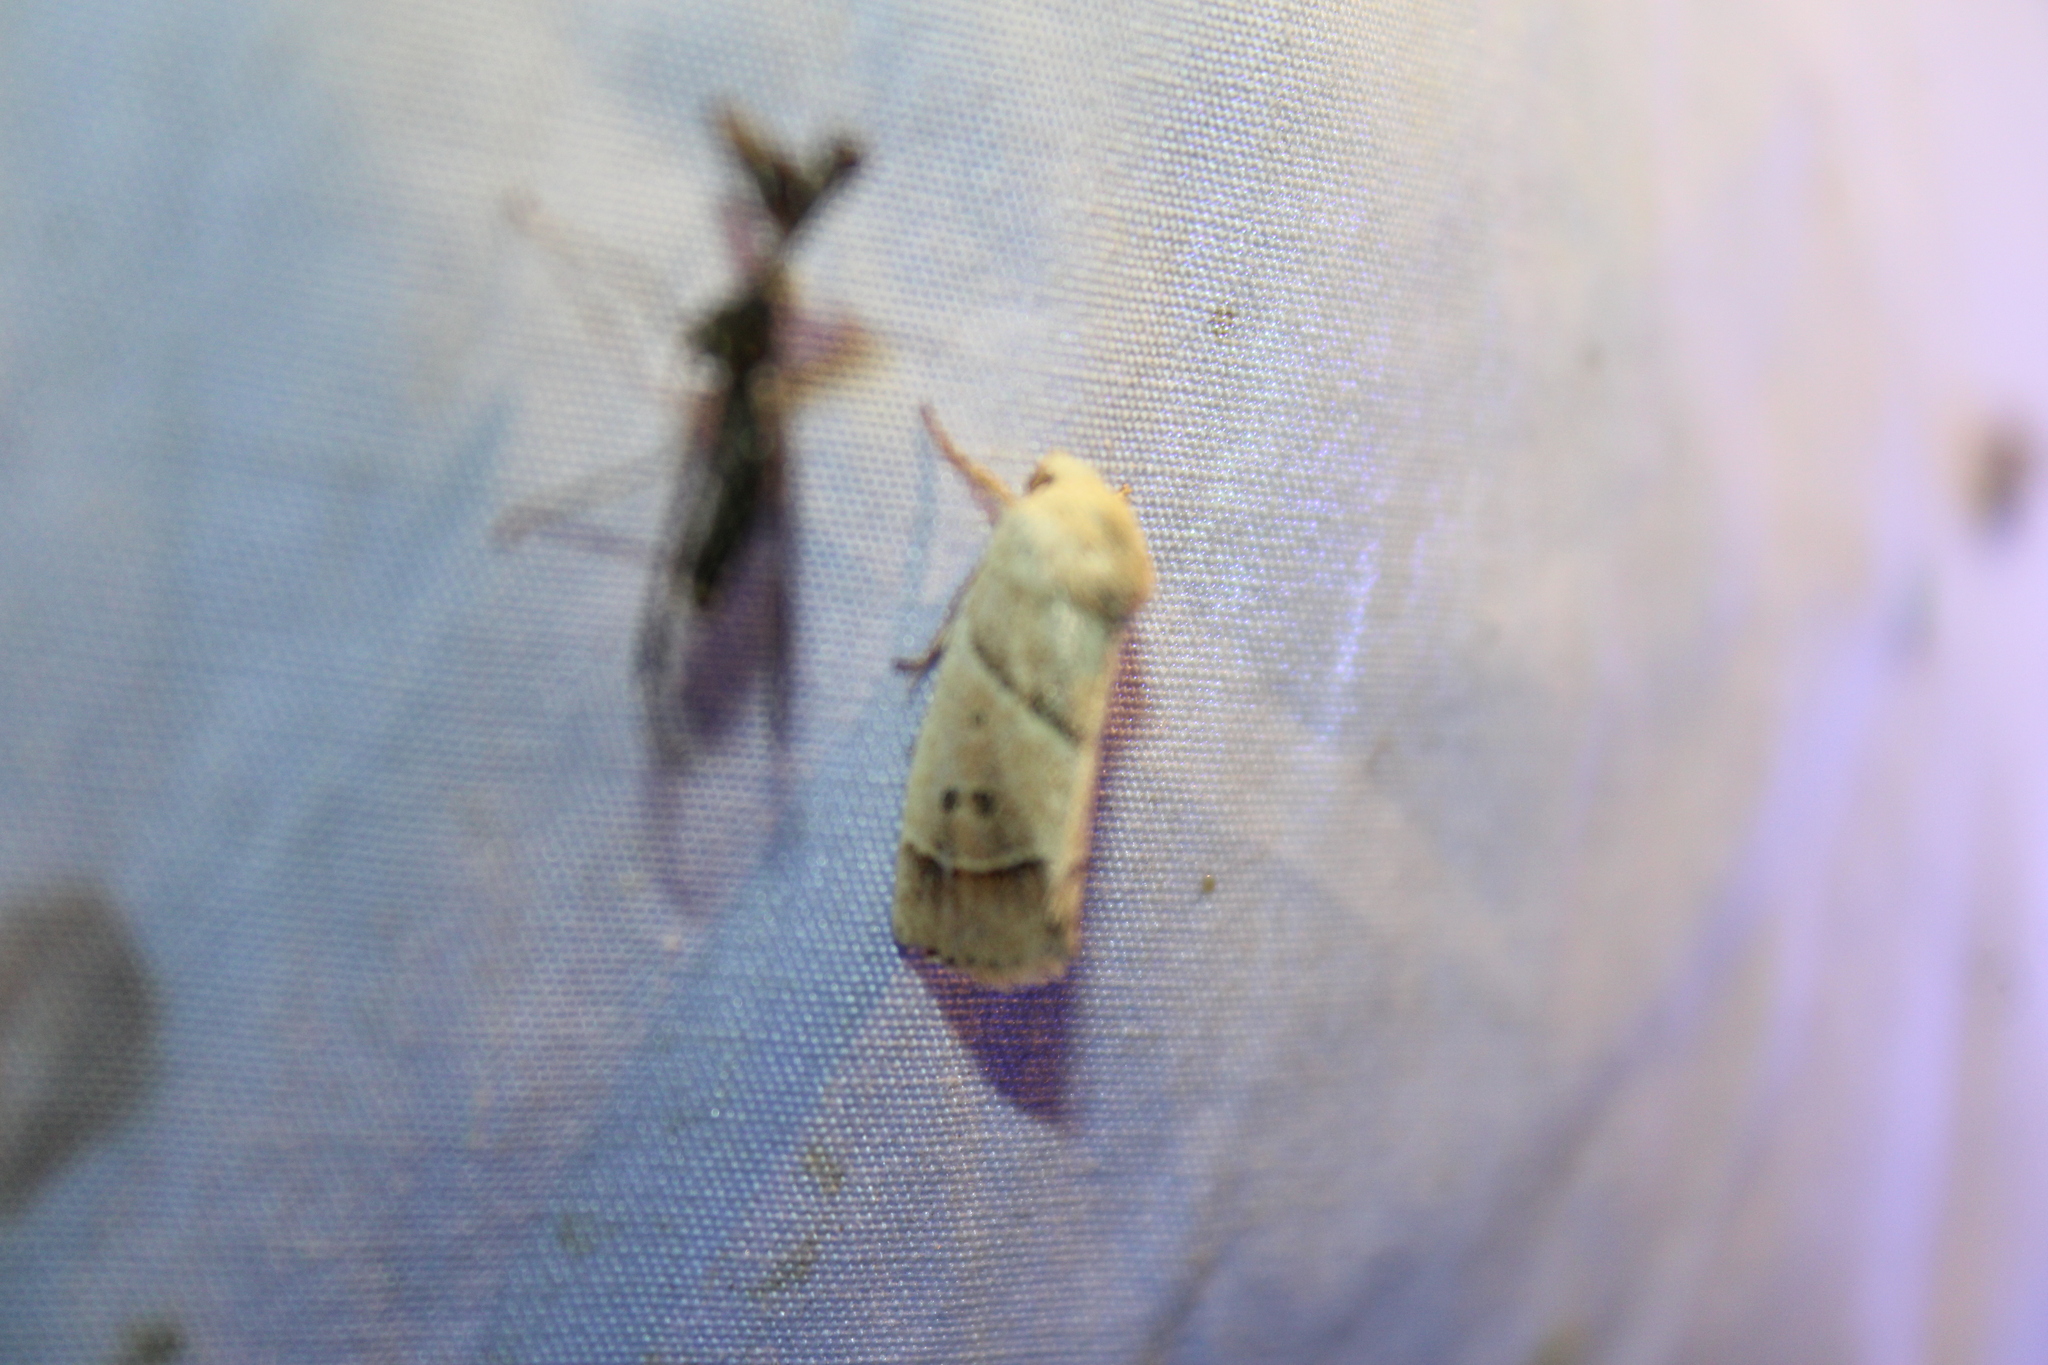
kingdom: Animalia
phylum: Arthropoda
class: Insecta
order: Lepidoptera
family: Noctuidae
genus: Cosmia
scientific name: Cosmia calami
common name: American dun-bar moth
